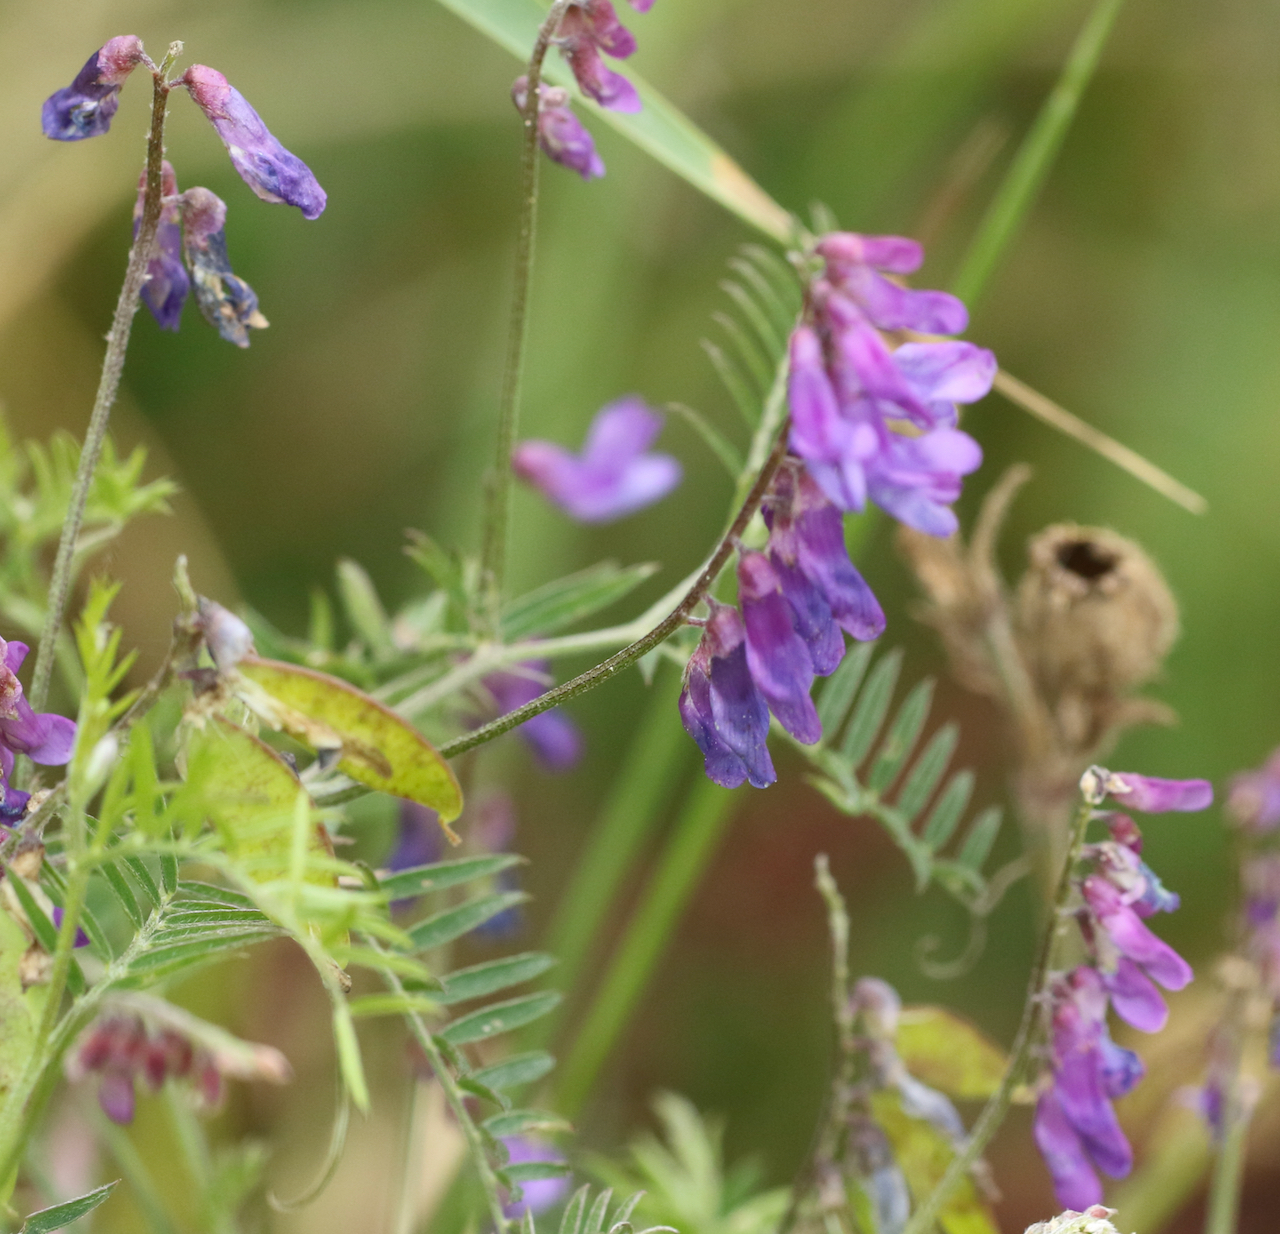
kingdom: Plantae
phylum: Tracheophyta
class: Magnoliopsida
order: Fabales
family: Fabaceae
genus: Vicia
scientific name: Vicia cracca
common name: Bird vetch
